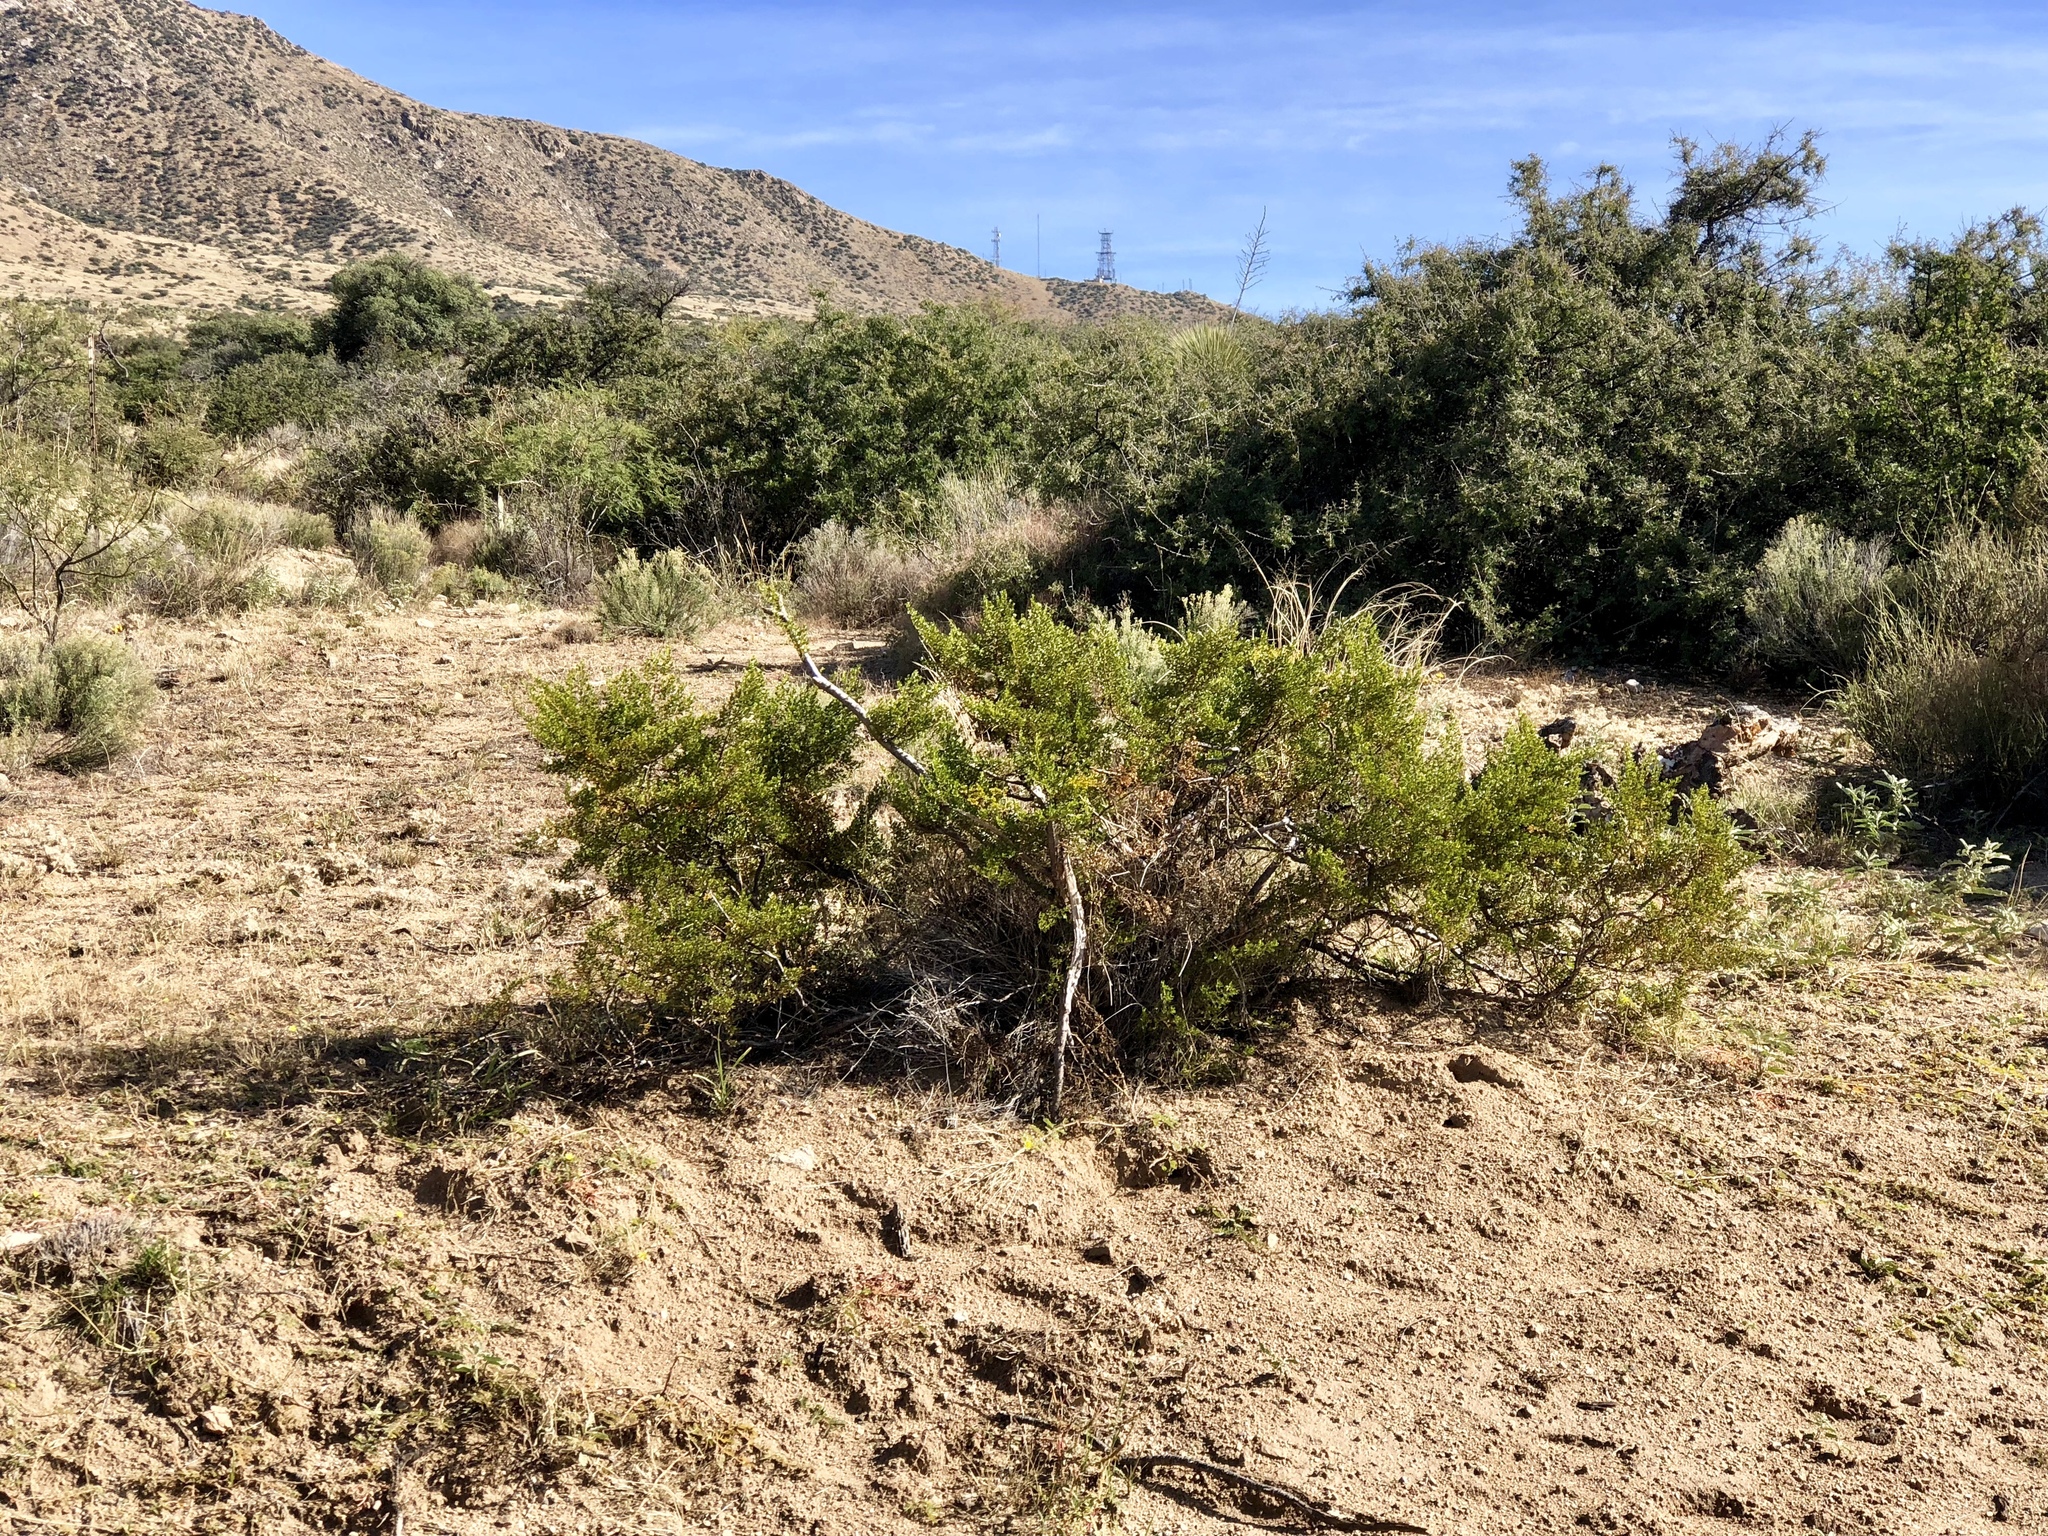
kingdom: Plantae
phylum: Tracheophyta
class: Magnoliopsida
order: Zygophyllales
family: Zygophyllaceae
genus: Larrea
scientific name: Larrea tridentata
